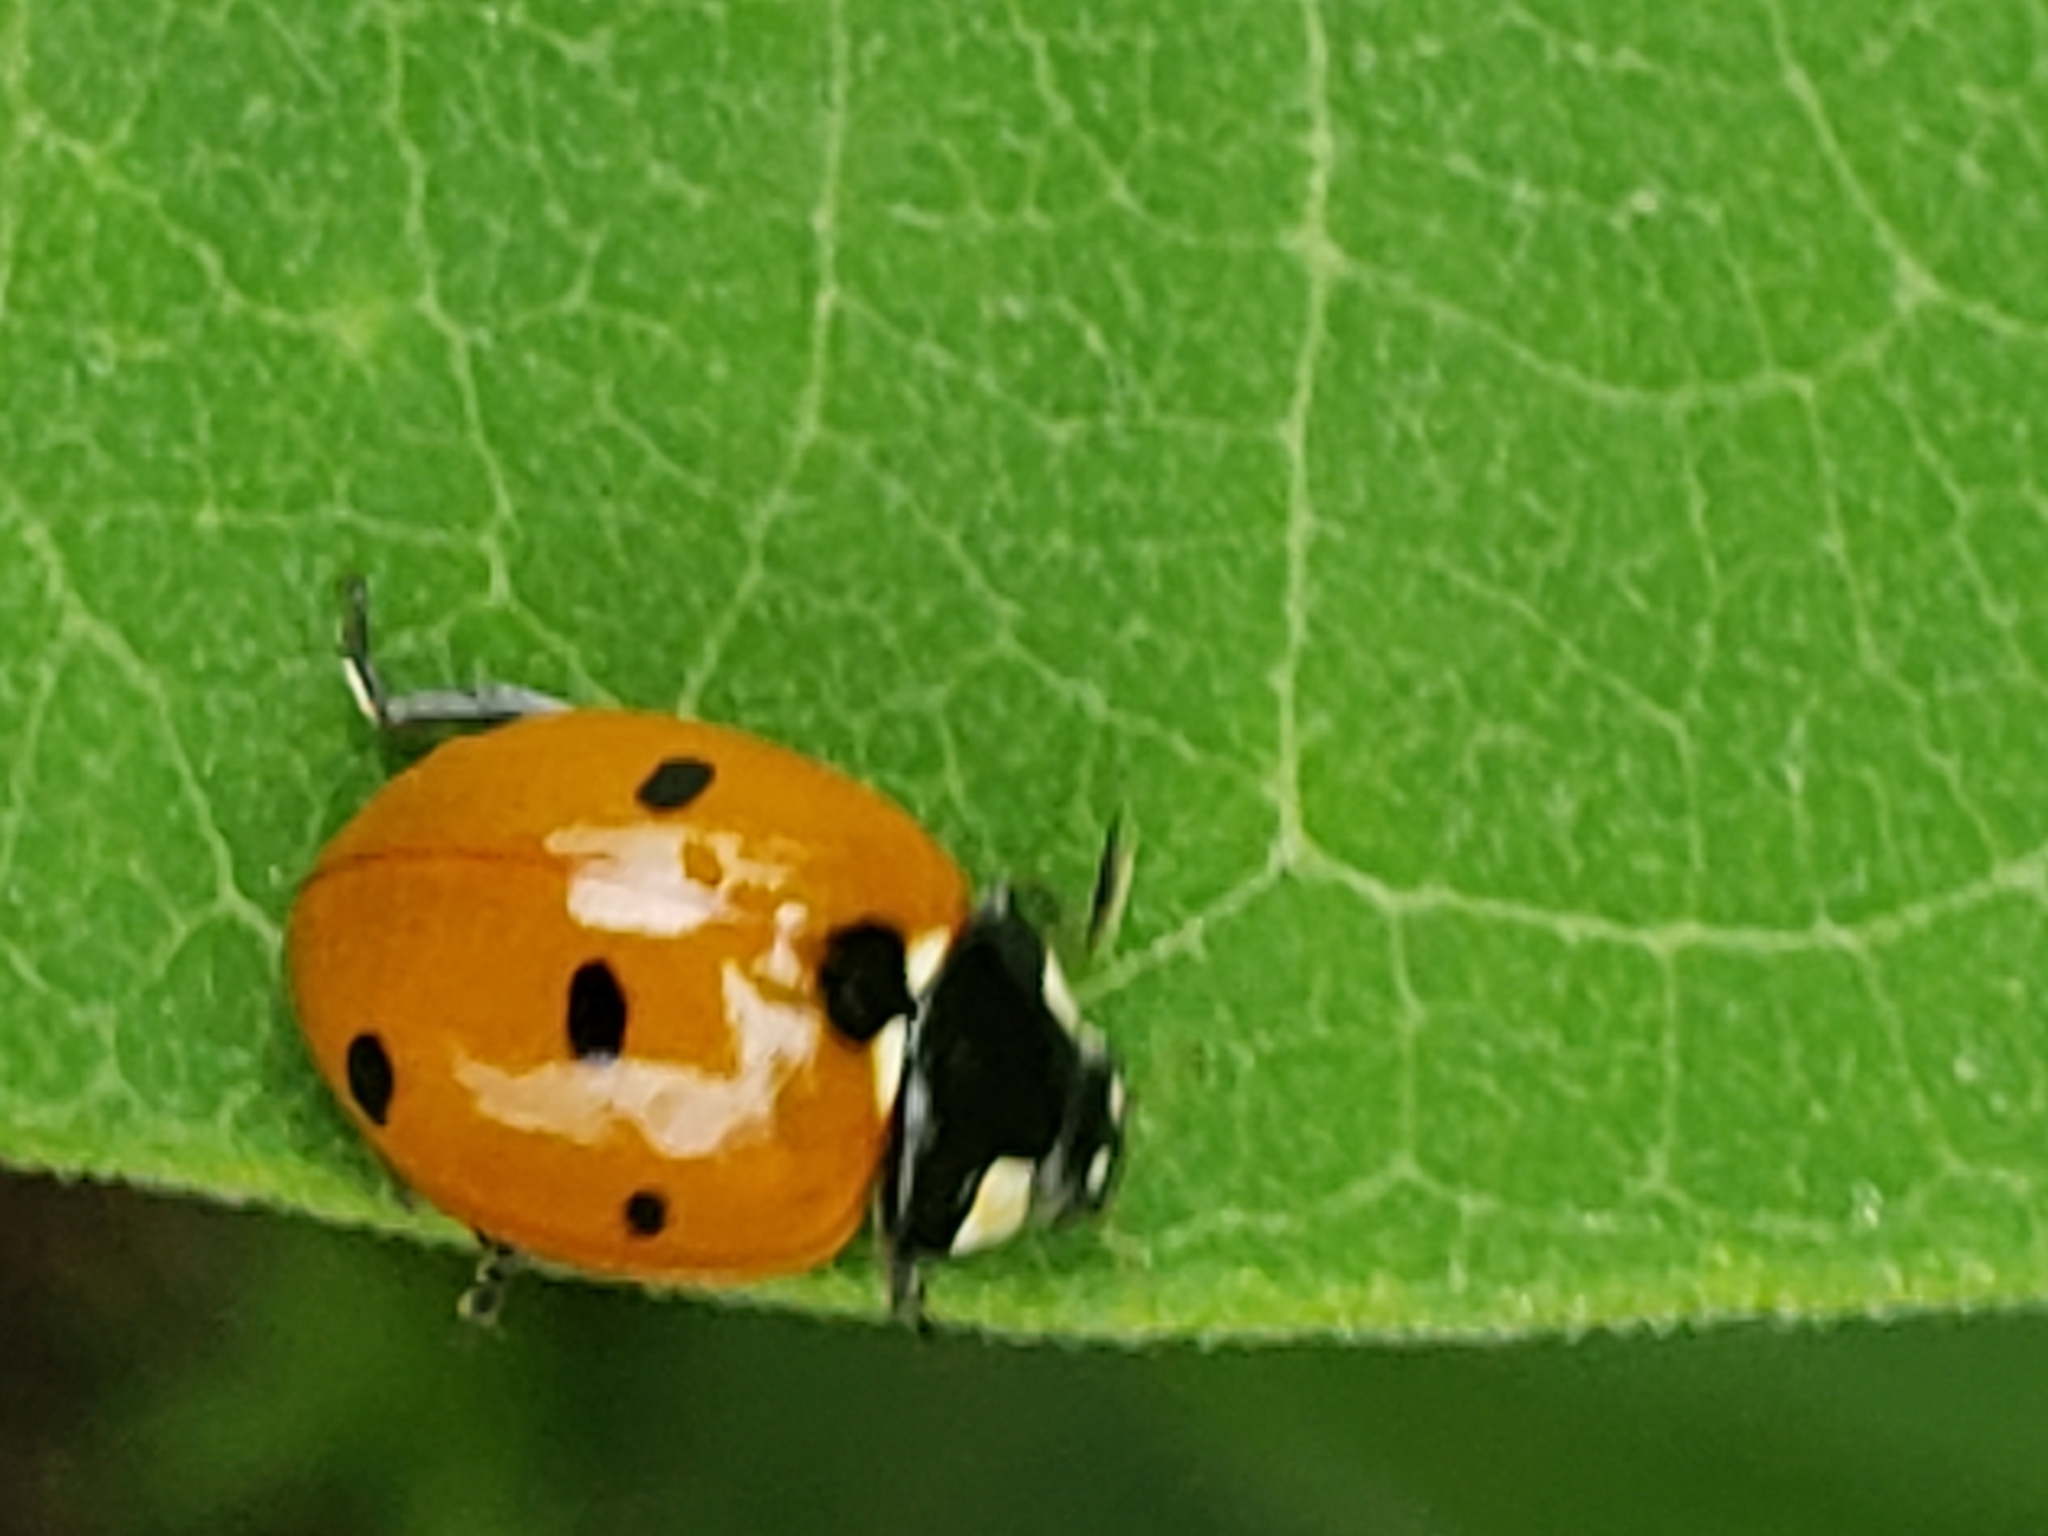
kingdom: Animalia
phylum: Arthropoda
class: Insecta
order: Coleoptera
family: Coccinellidae
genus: Coccinella
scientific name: Coccinella septempunctata
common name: Sevenspotted lady beetle
